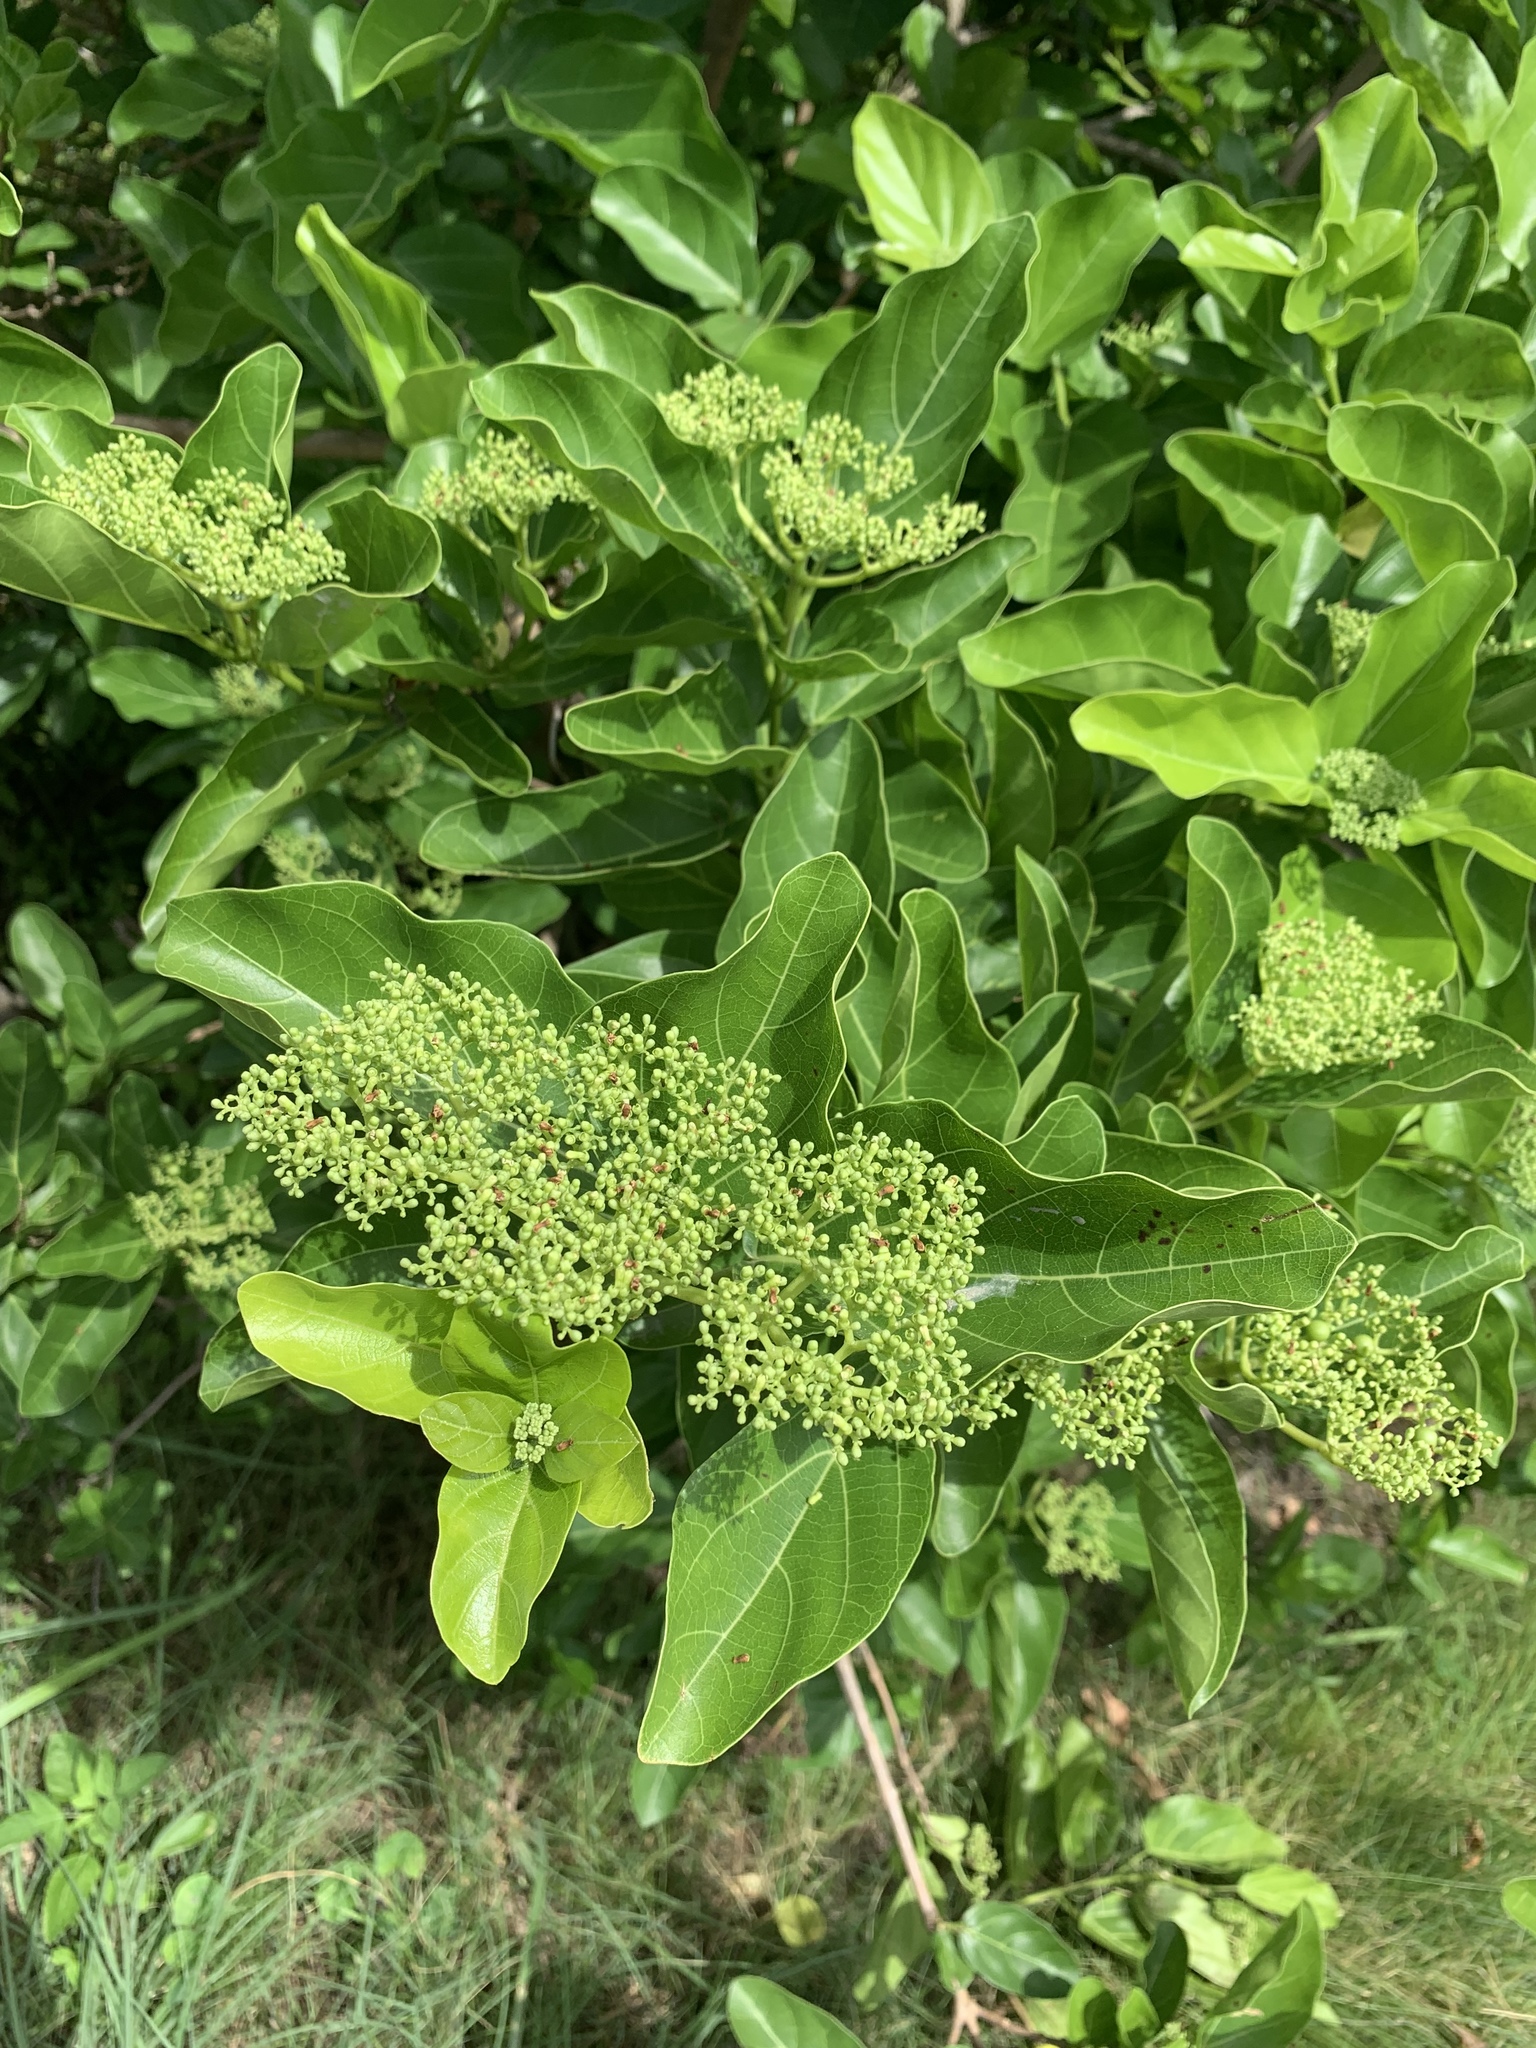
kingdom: Plantae
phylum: Tracheophyta
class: Magnoliopsida
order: Lamiales
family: Lamiaceae
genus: Premna
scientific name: Premna serratifolia
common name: Bastard guelder
